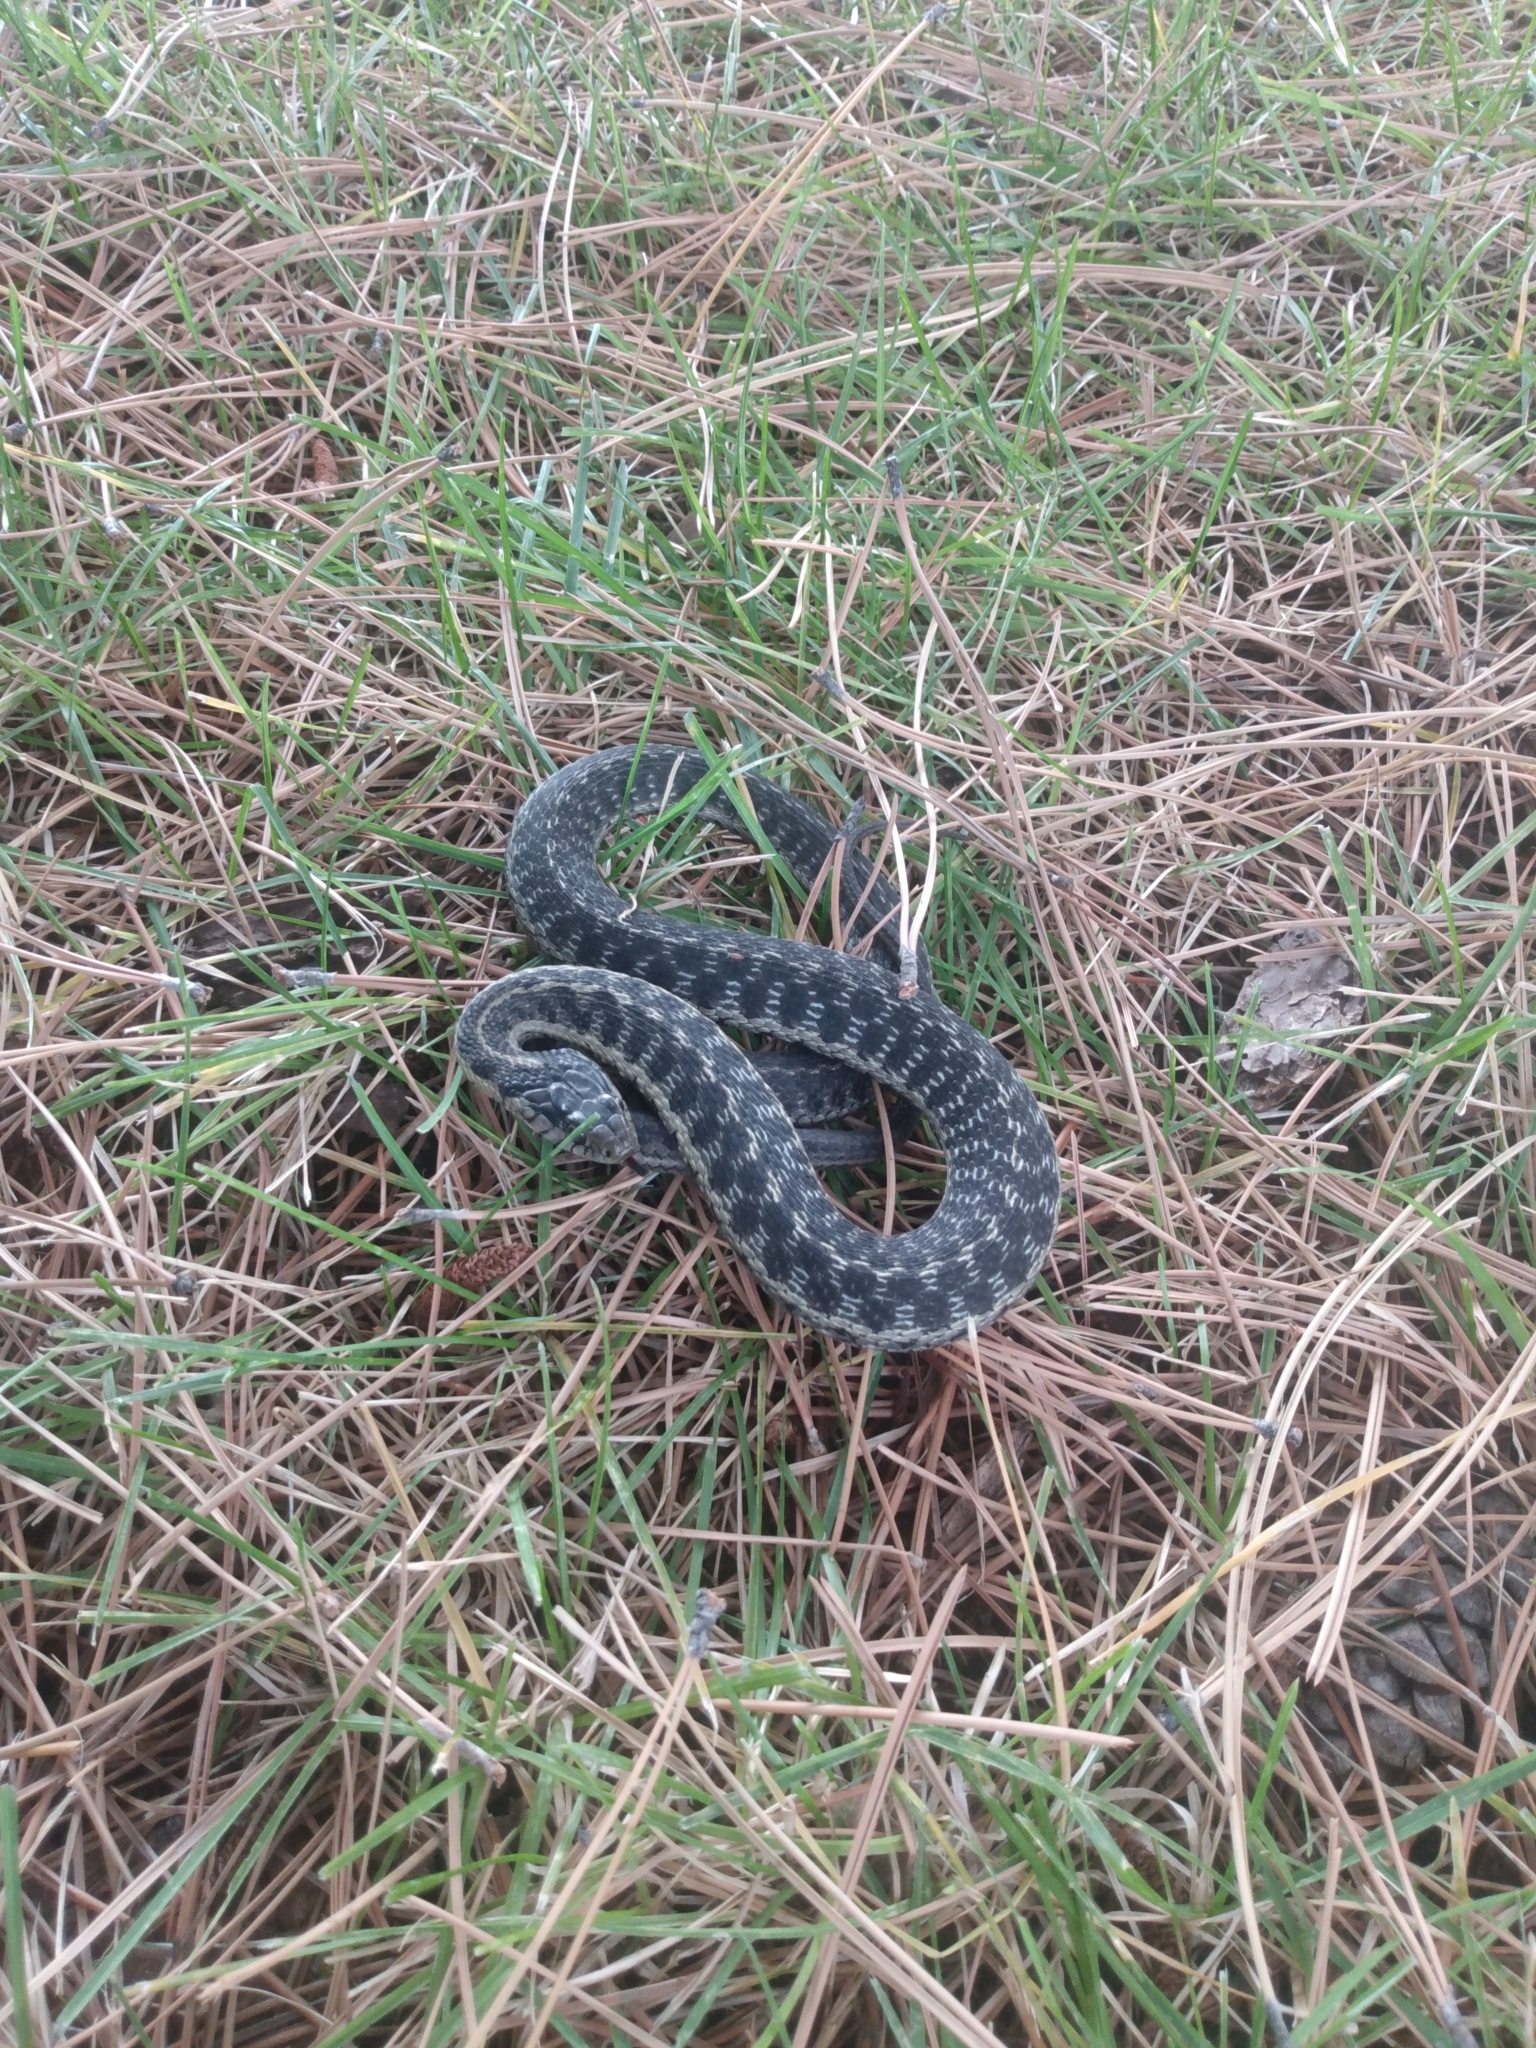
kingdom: Animalia
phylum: Chordata
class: Squamata
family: Colubridae
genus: Thamnophis
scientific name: Thamnophis elegans
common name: Western terrestrial garter snake
